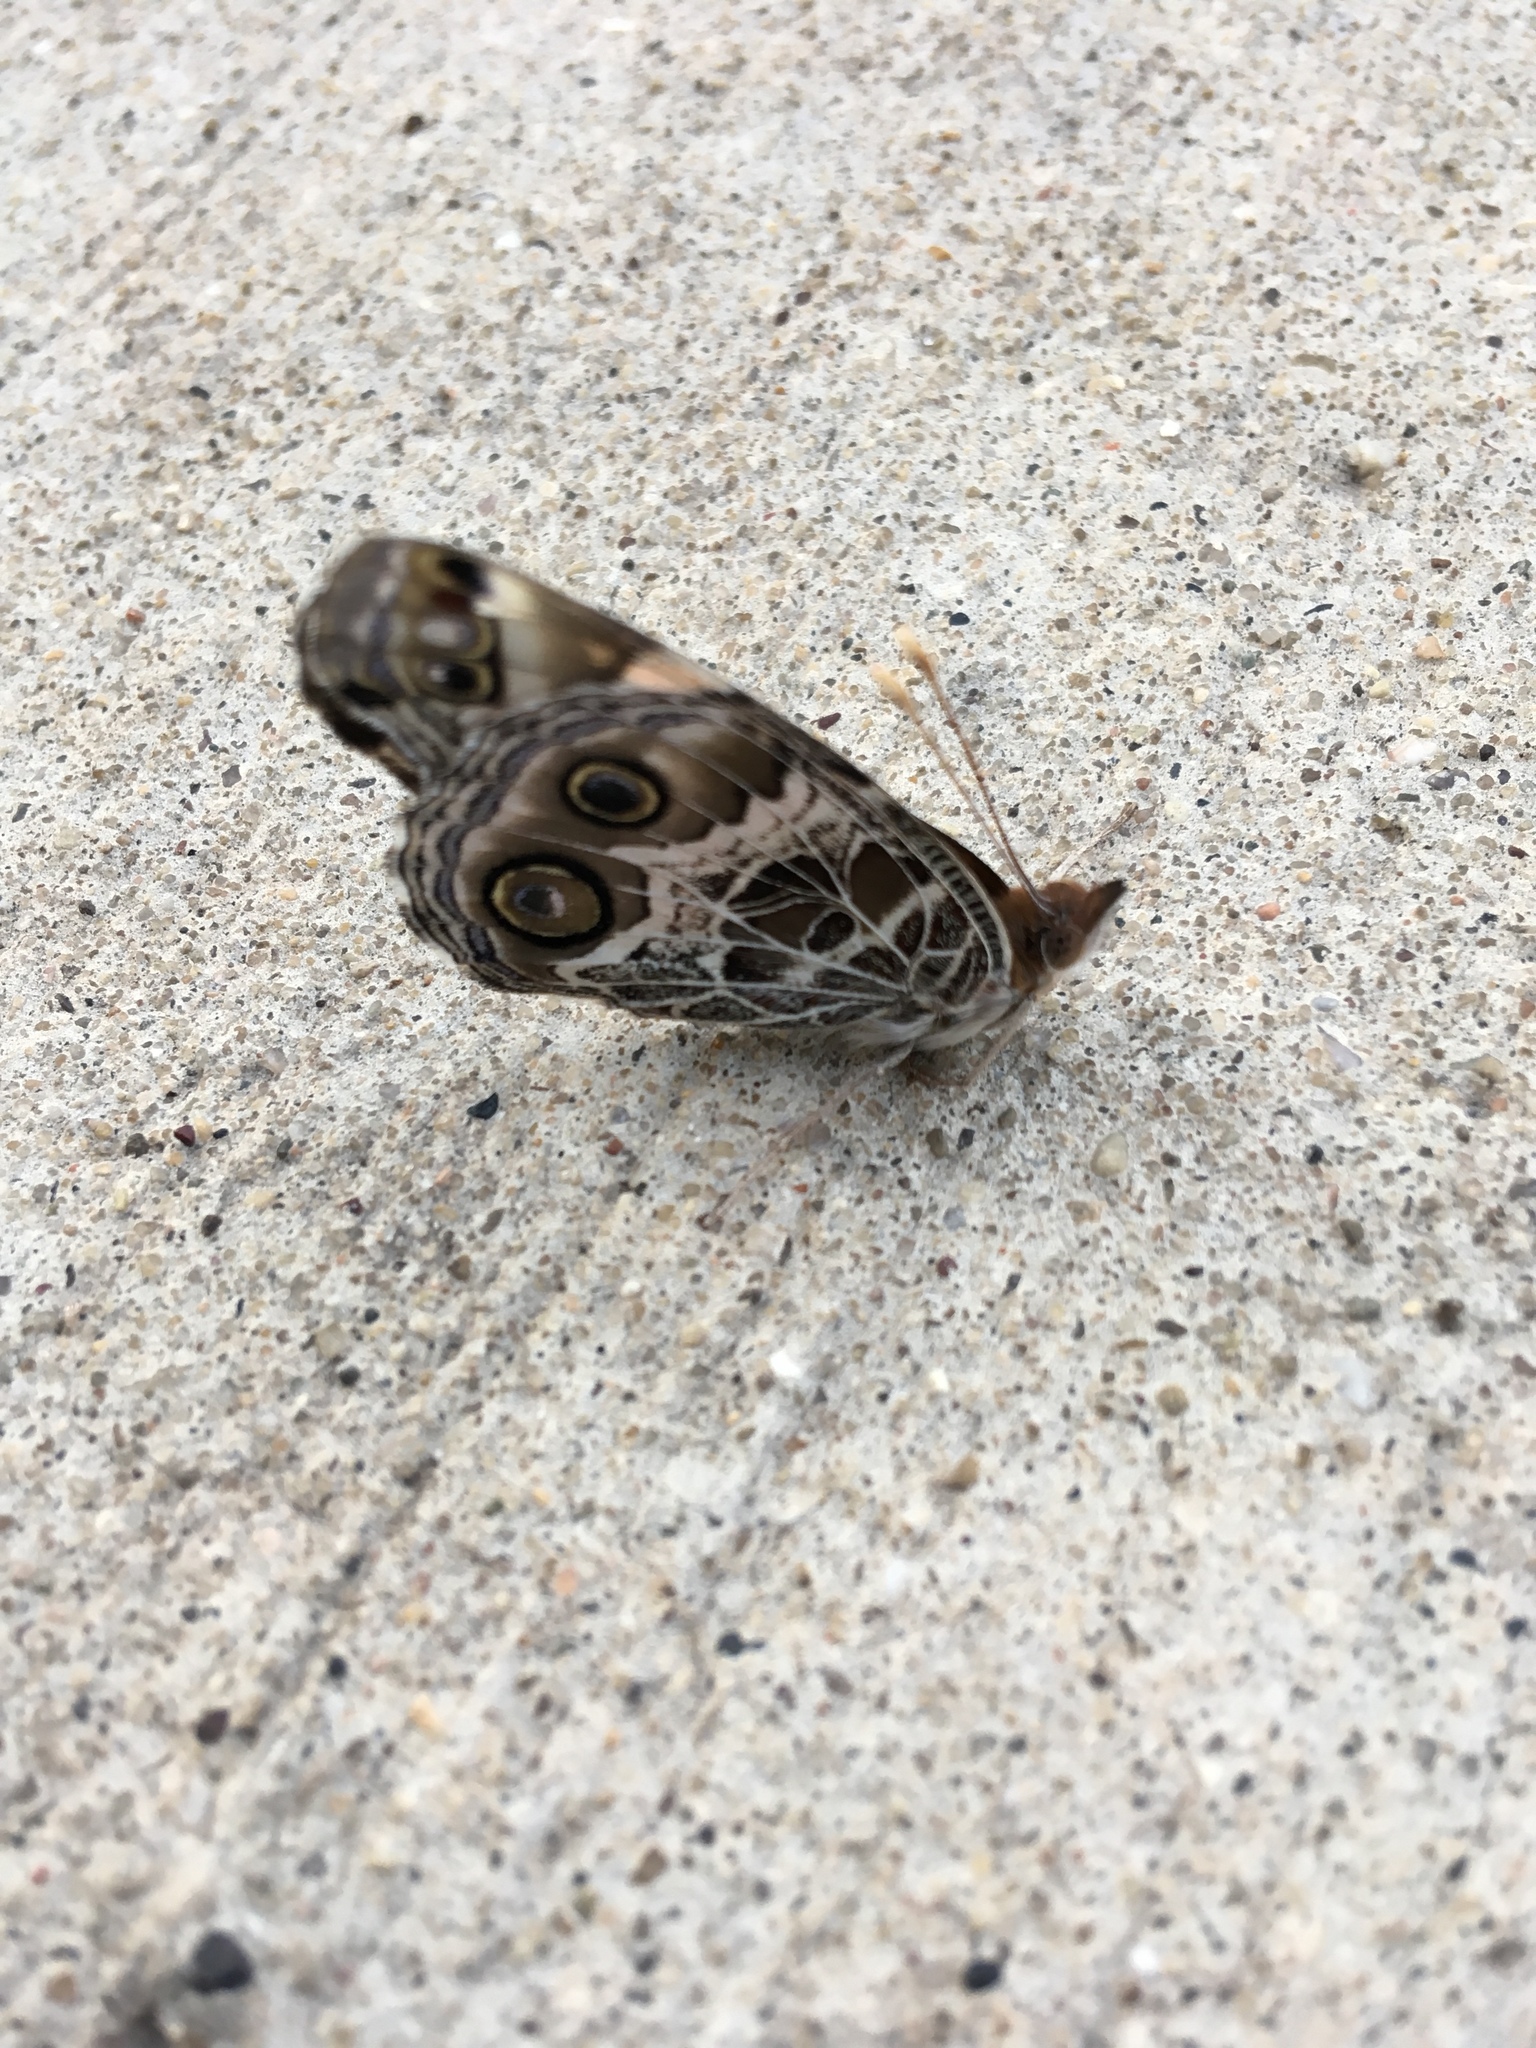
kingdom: Animalia
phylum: Arthropoda
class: Insecta
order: Lepidoptera
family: Nymphalidae
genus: Vanessa
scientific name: Vanessa virginiensis
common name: American lady
